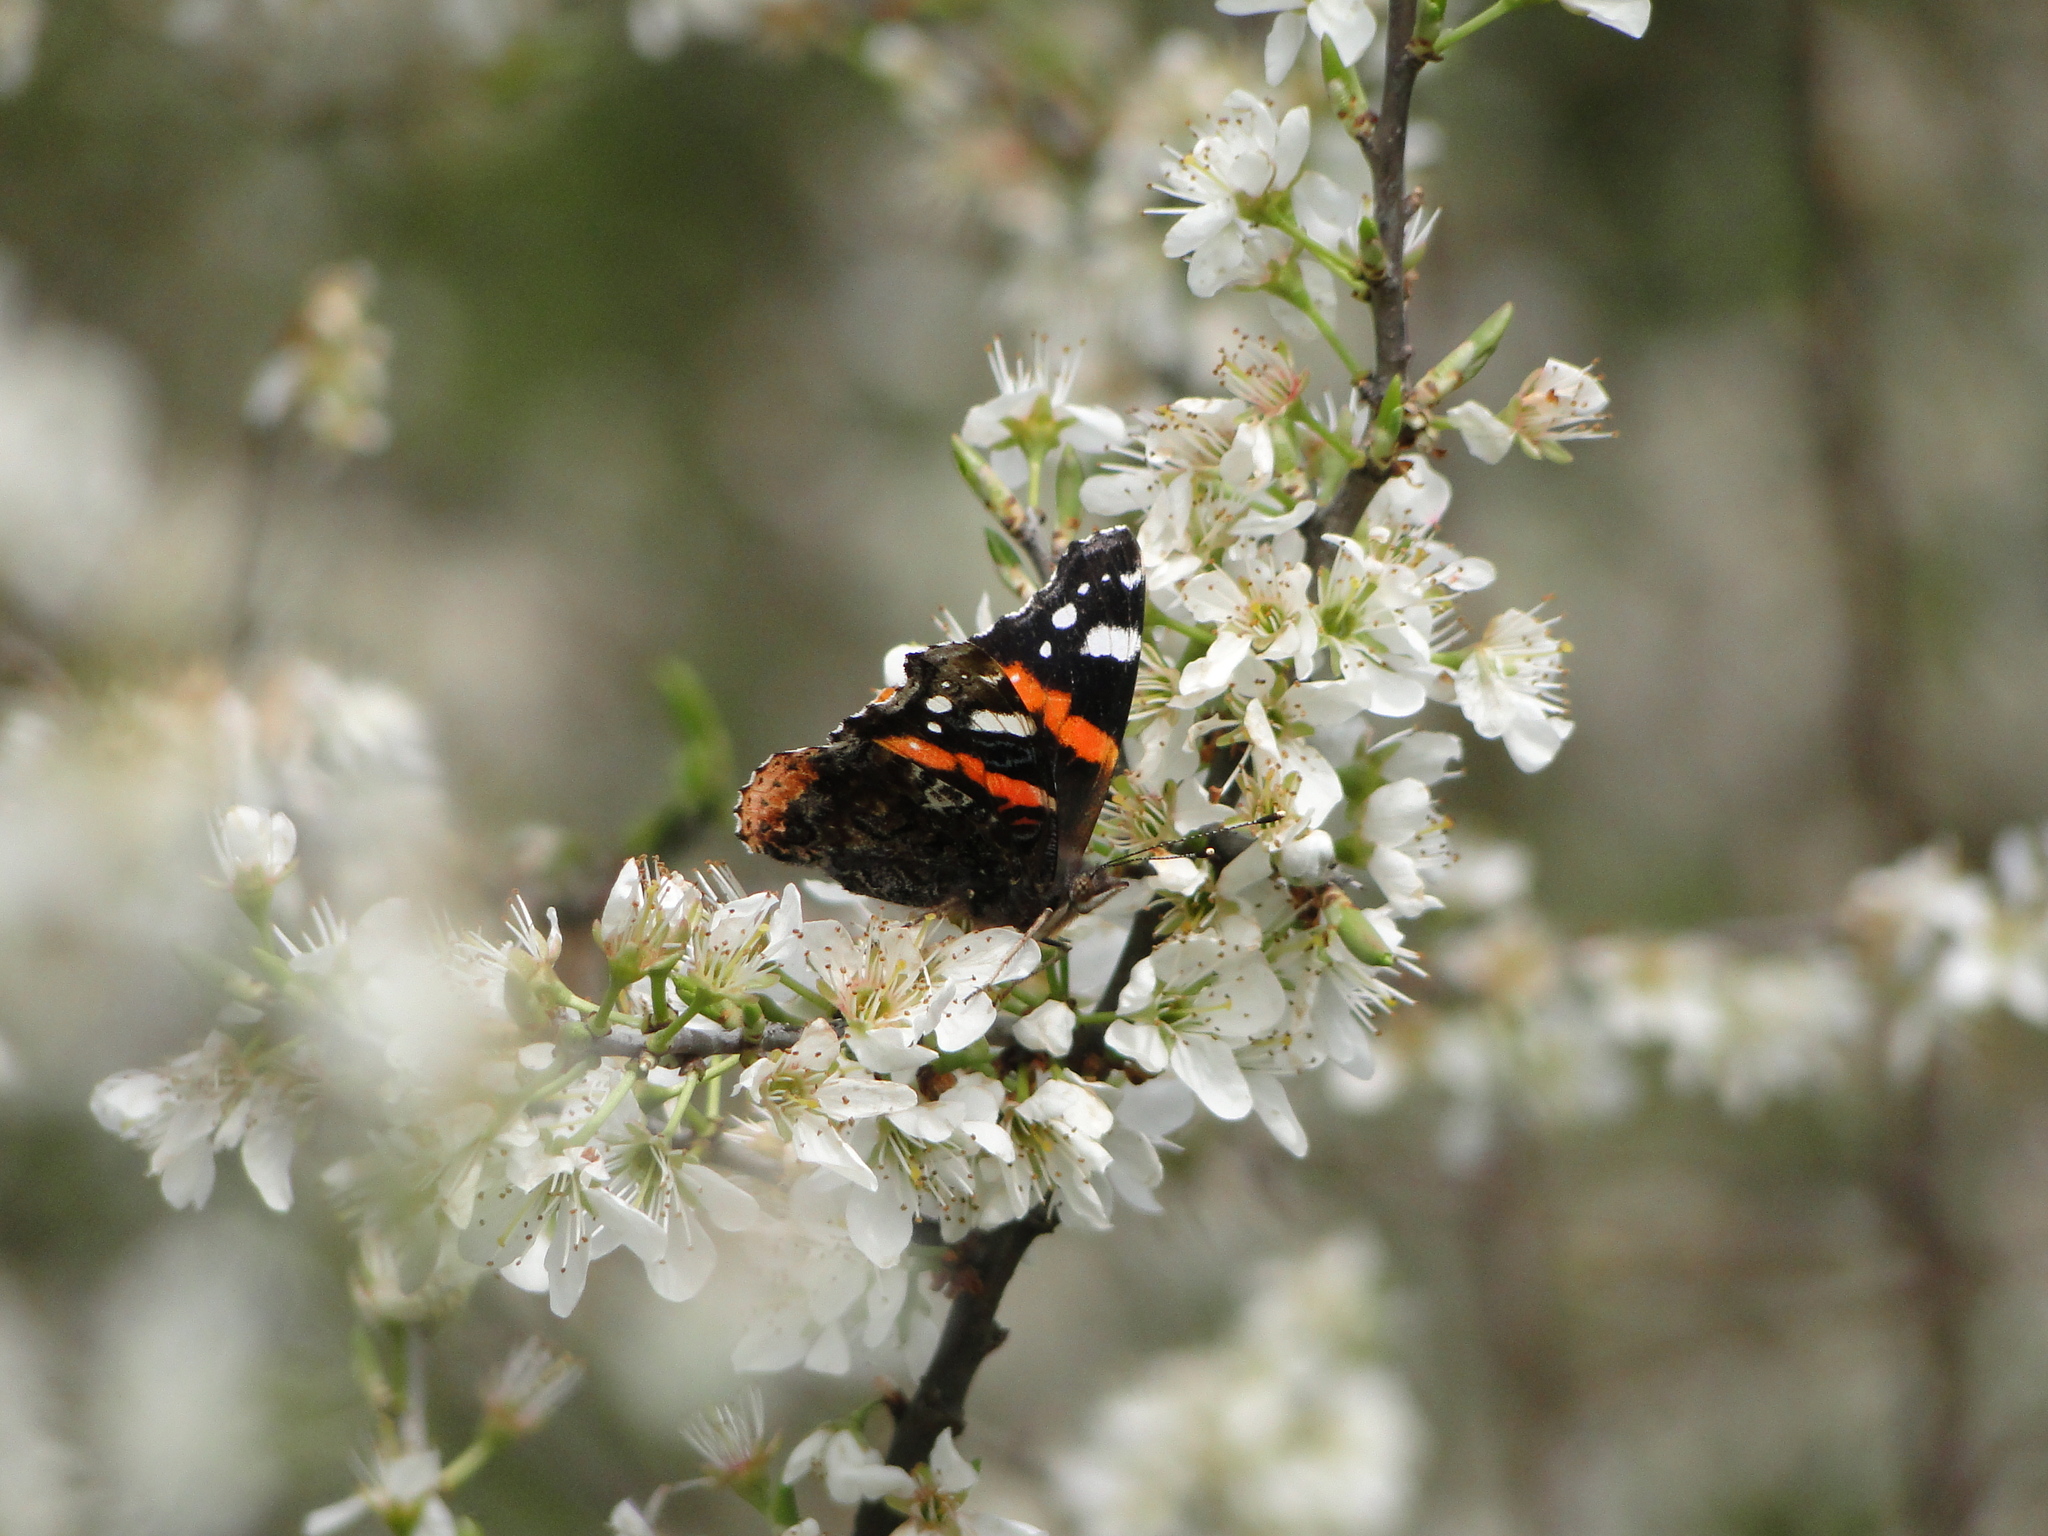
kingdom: Animalia
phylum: Arthropoda
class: Insecta
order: Lepidoptera
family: Nymphalidae
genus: Vanessa
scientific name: Vanessa atalanta
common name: Red admiral
